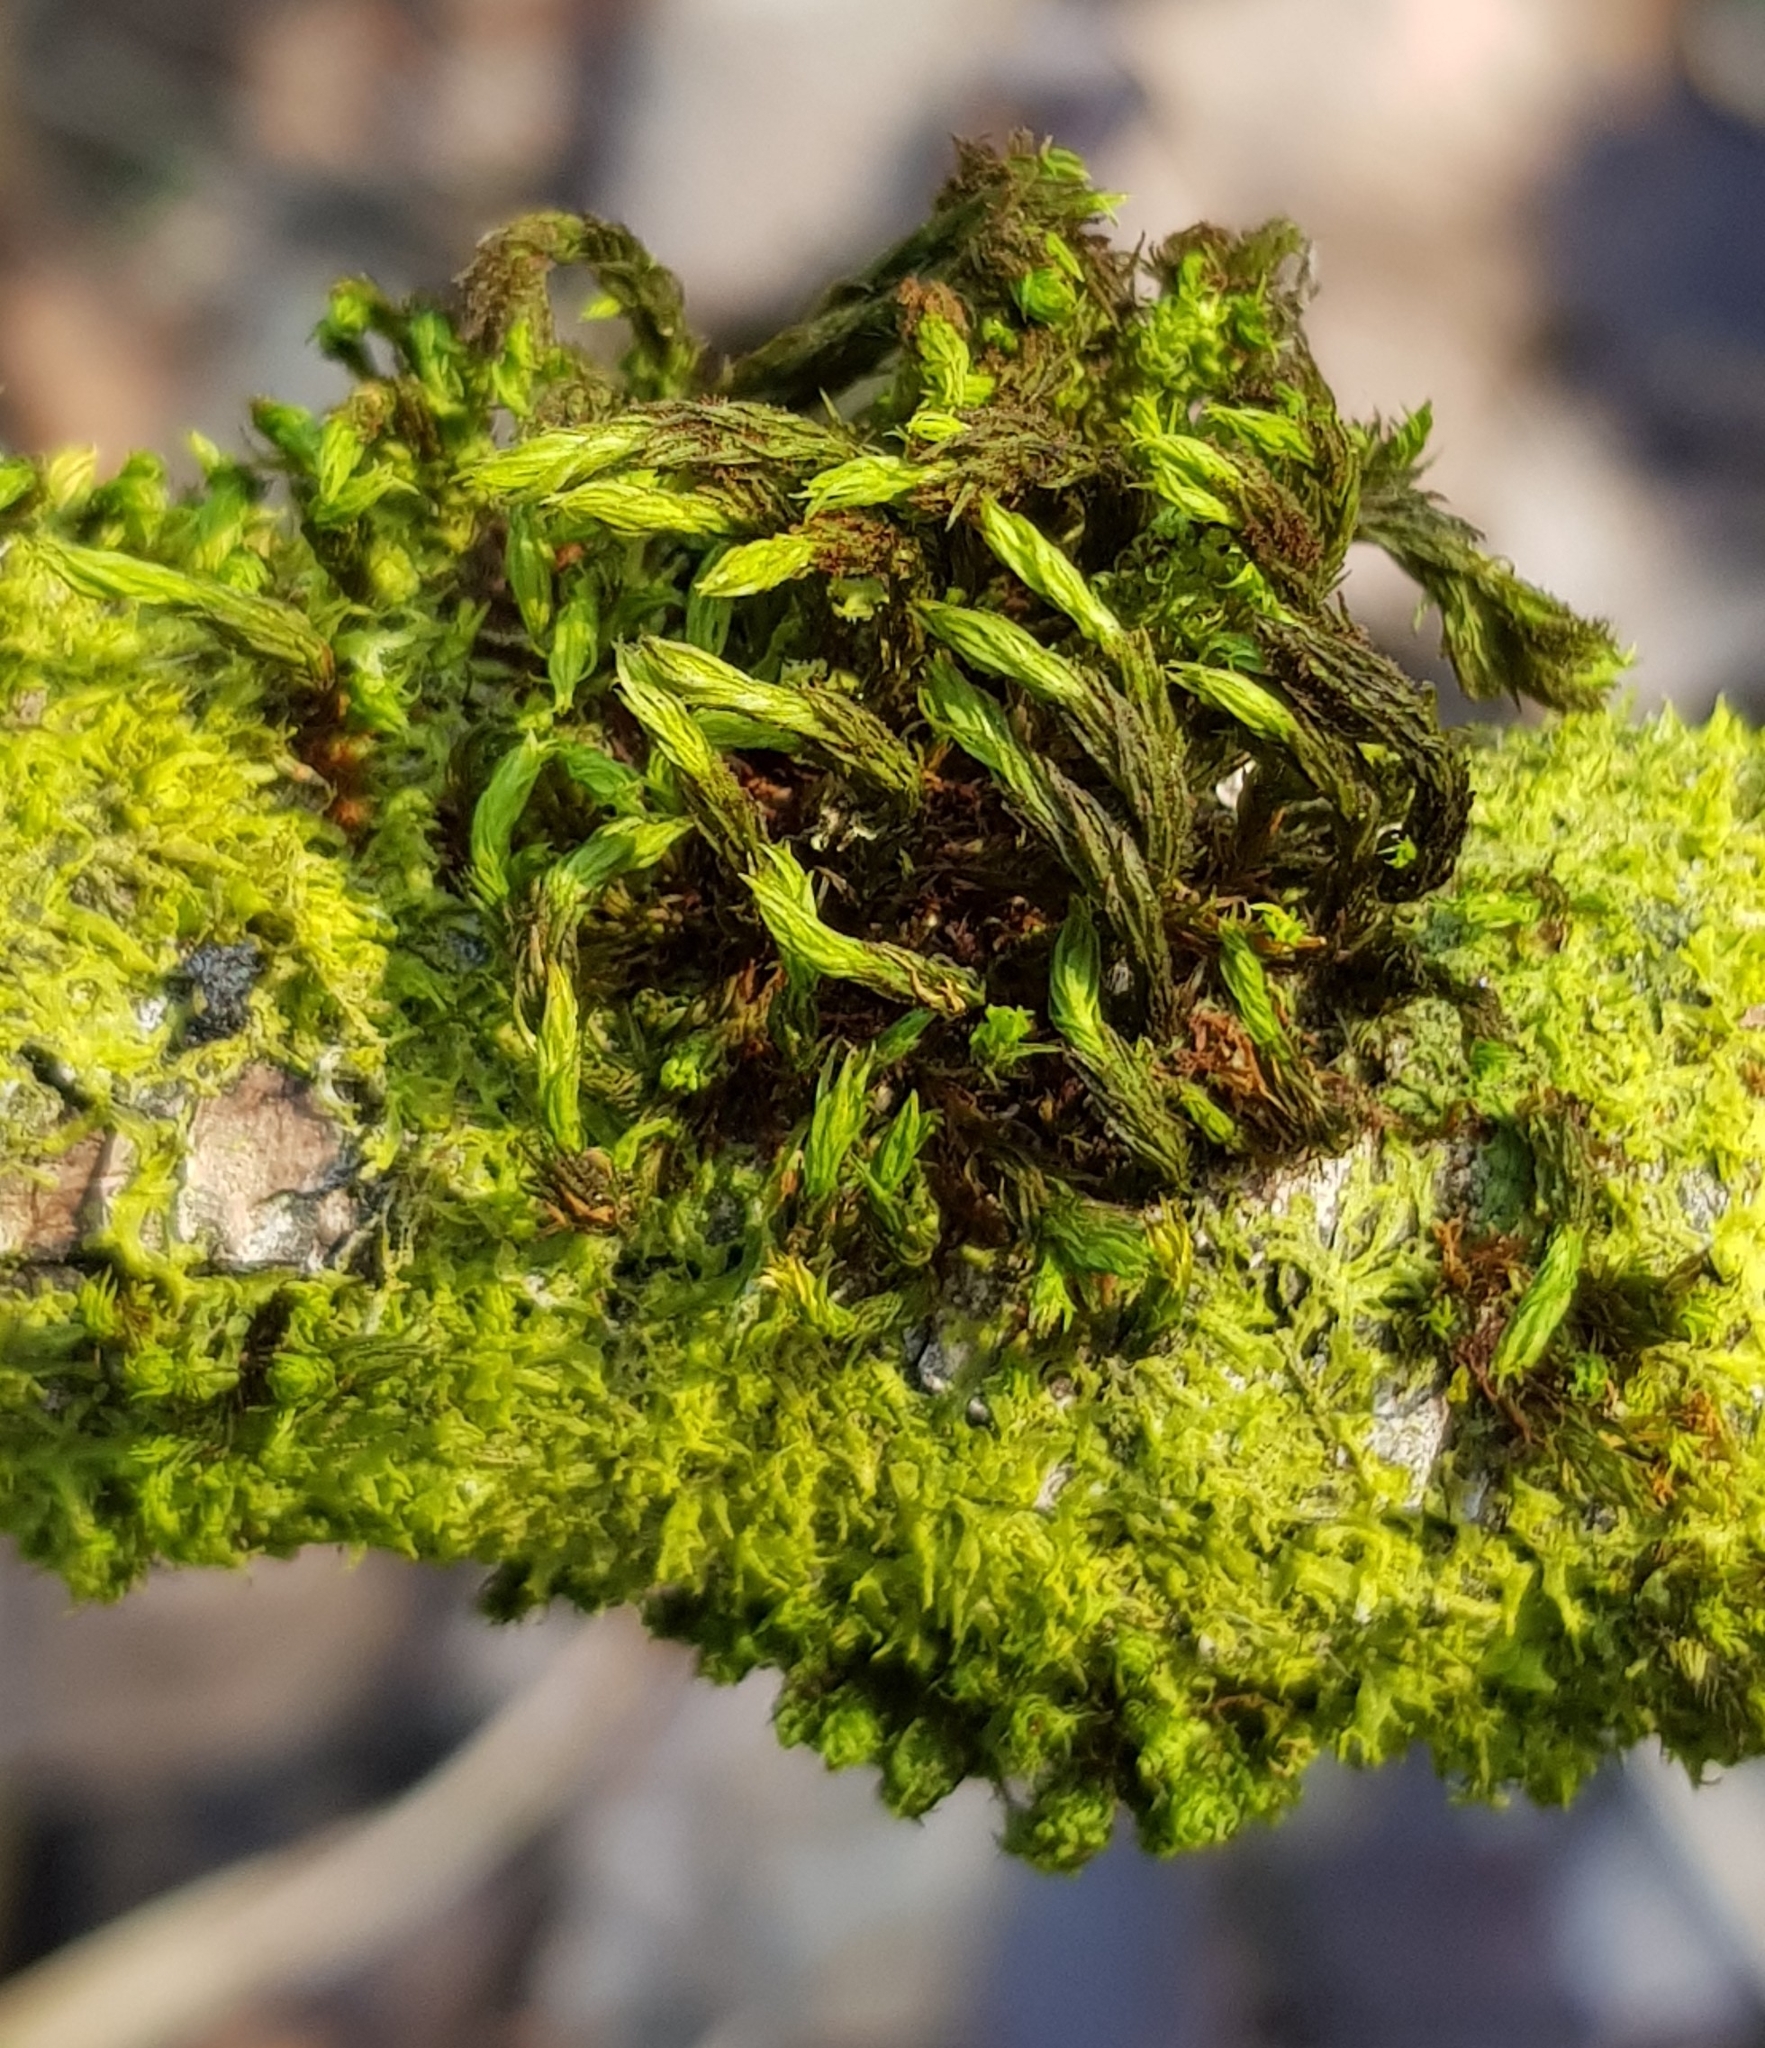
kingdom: Plantae
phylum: Bryophyta
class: Bryopsida
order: Orthotrichales
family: Orthotrichaceae
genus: Pulvigera
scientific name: Pulvigera lyellii
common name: Lyell's bristle-moss
